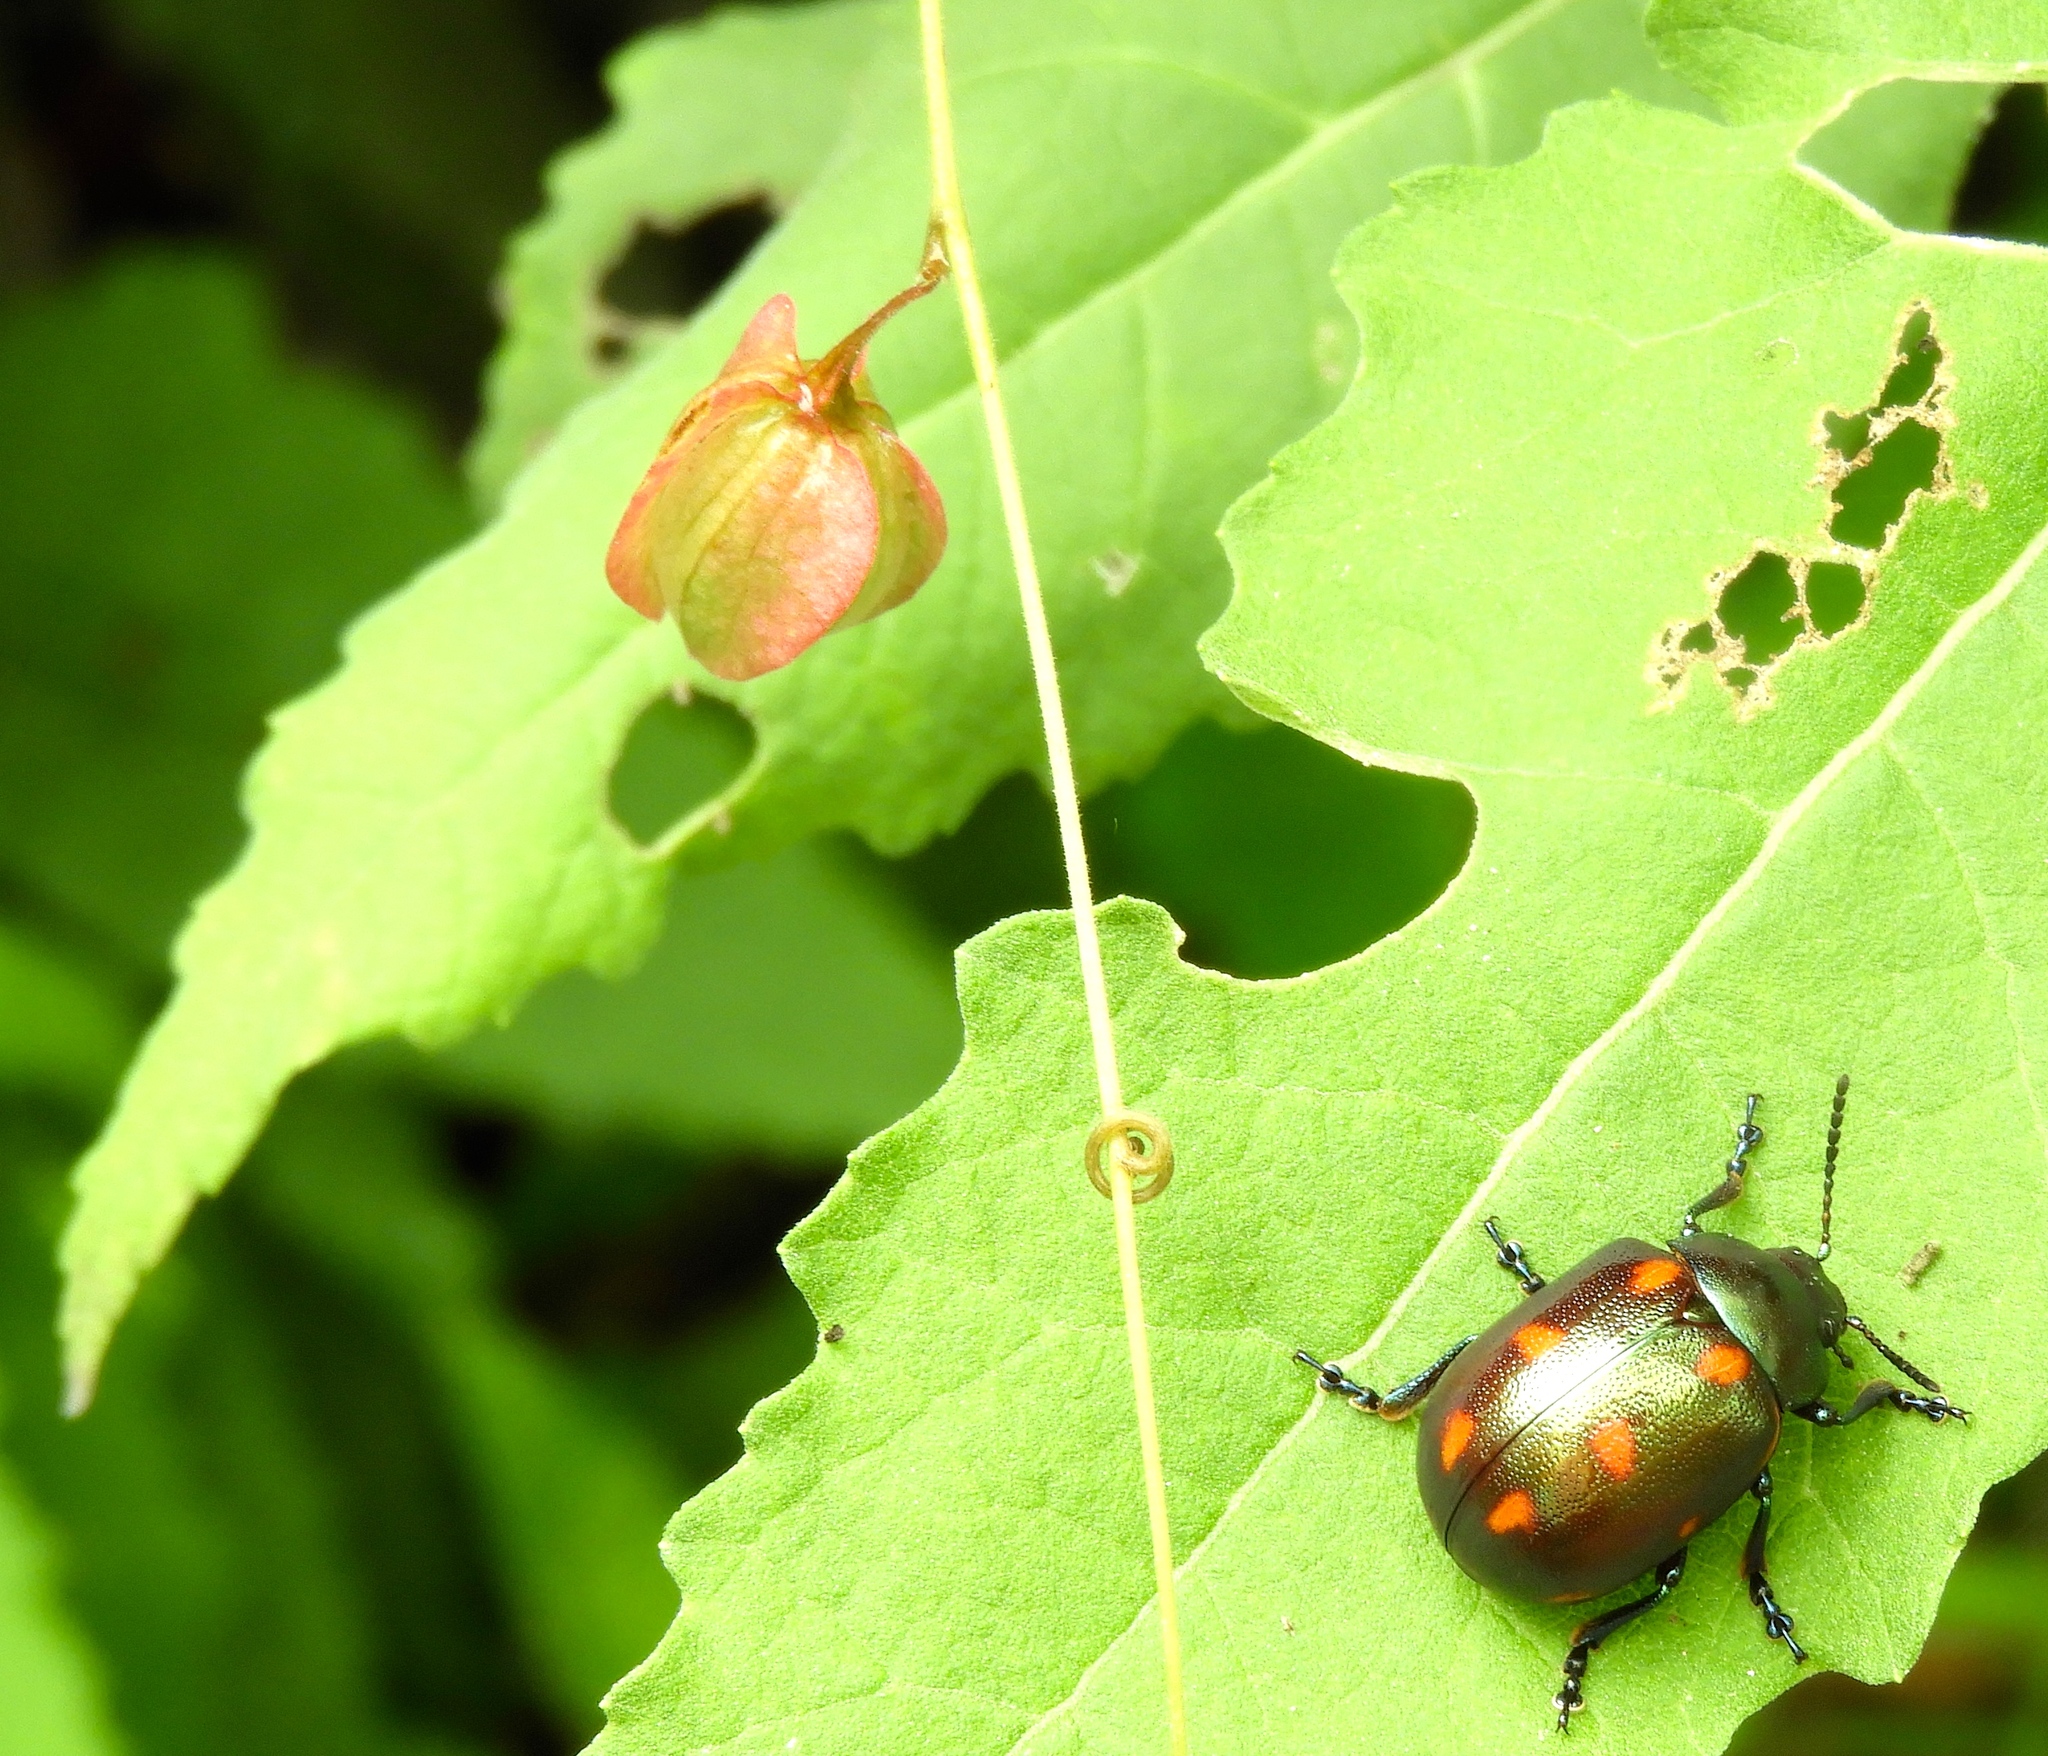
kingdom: Animalia
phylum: Arthropoda
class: Insecta
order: Coleoptera
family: Chrysomelidae
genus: Leptinotarsa
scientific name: Leptinotarsa behrensi
